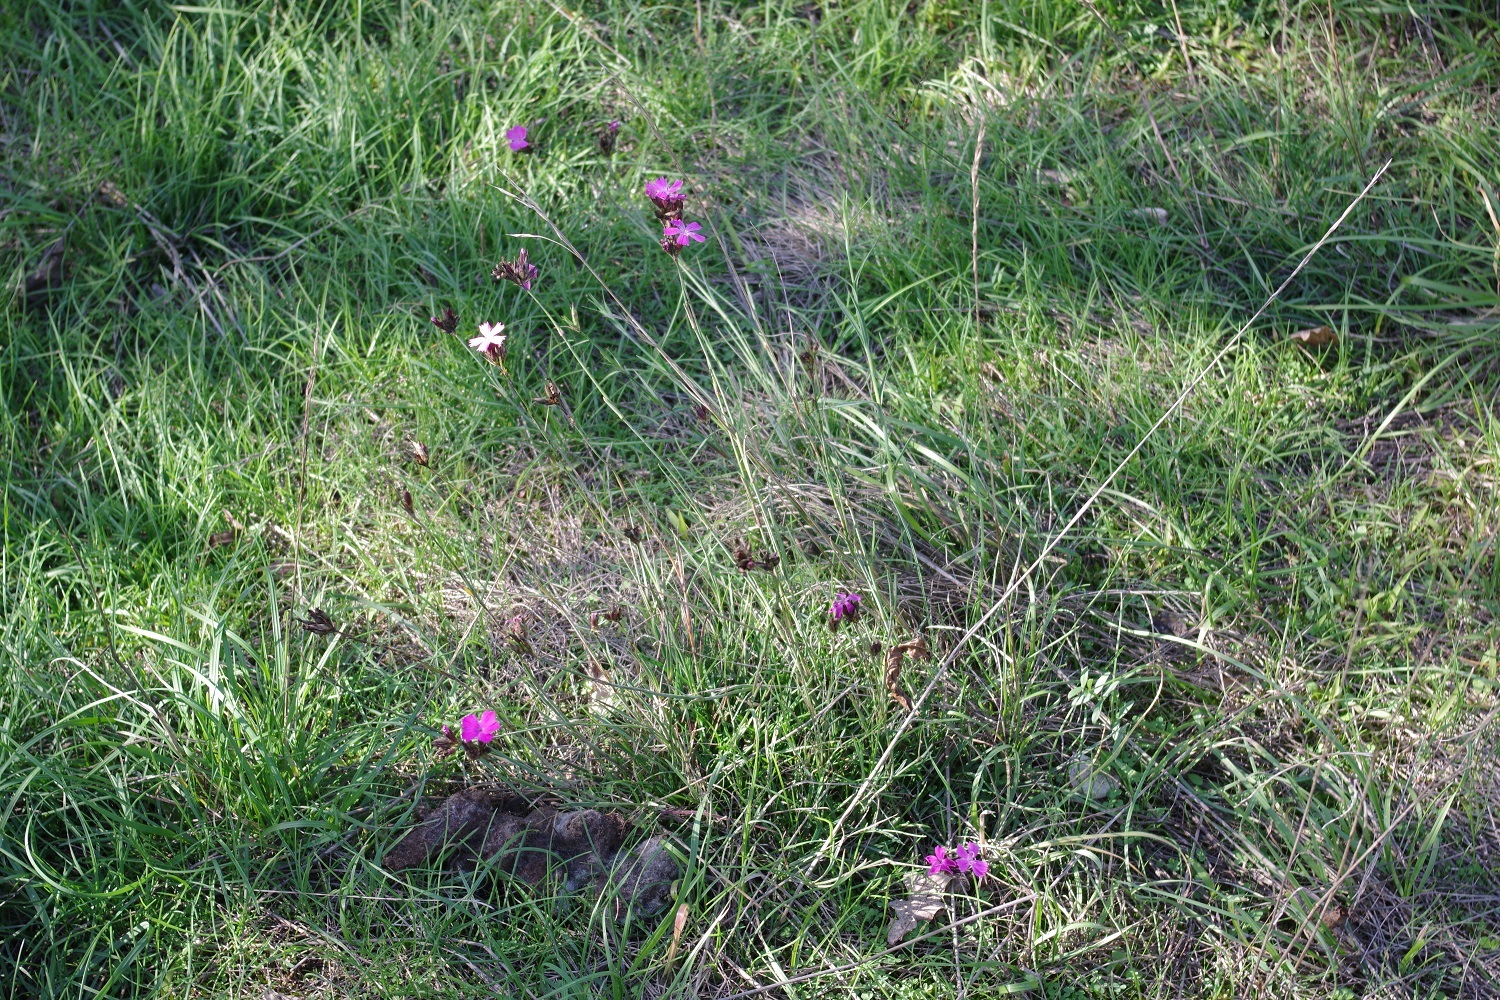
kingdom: Plantae
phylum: Tracheophyta
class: Magnoliopsida
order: Caryophyllales
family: Caryophyllaceae
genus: Dianthus
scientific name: Dianthus carthusianorum
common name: Carthusian pink
